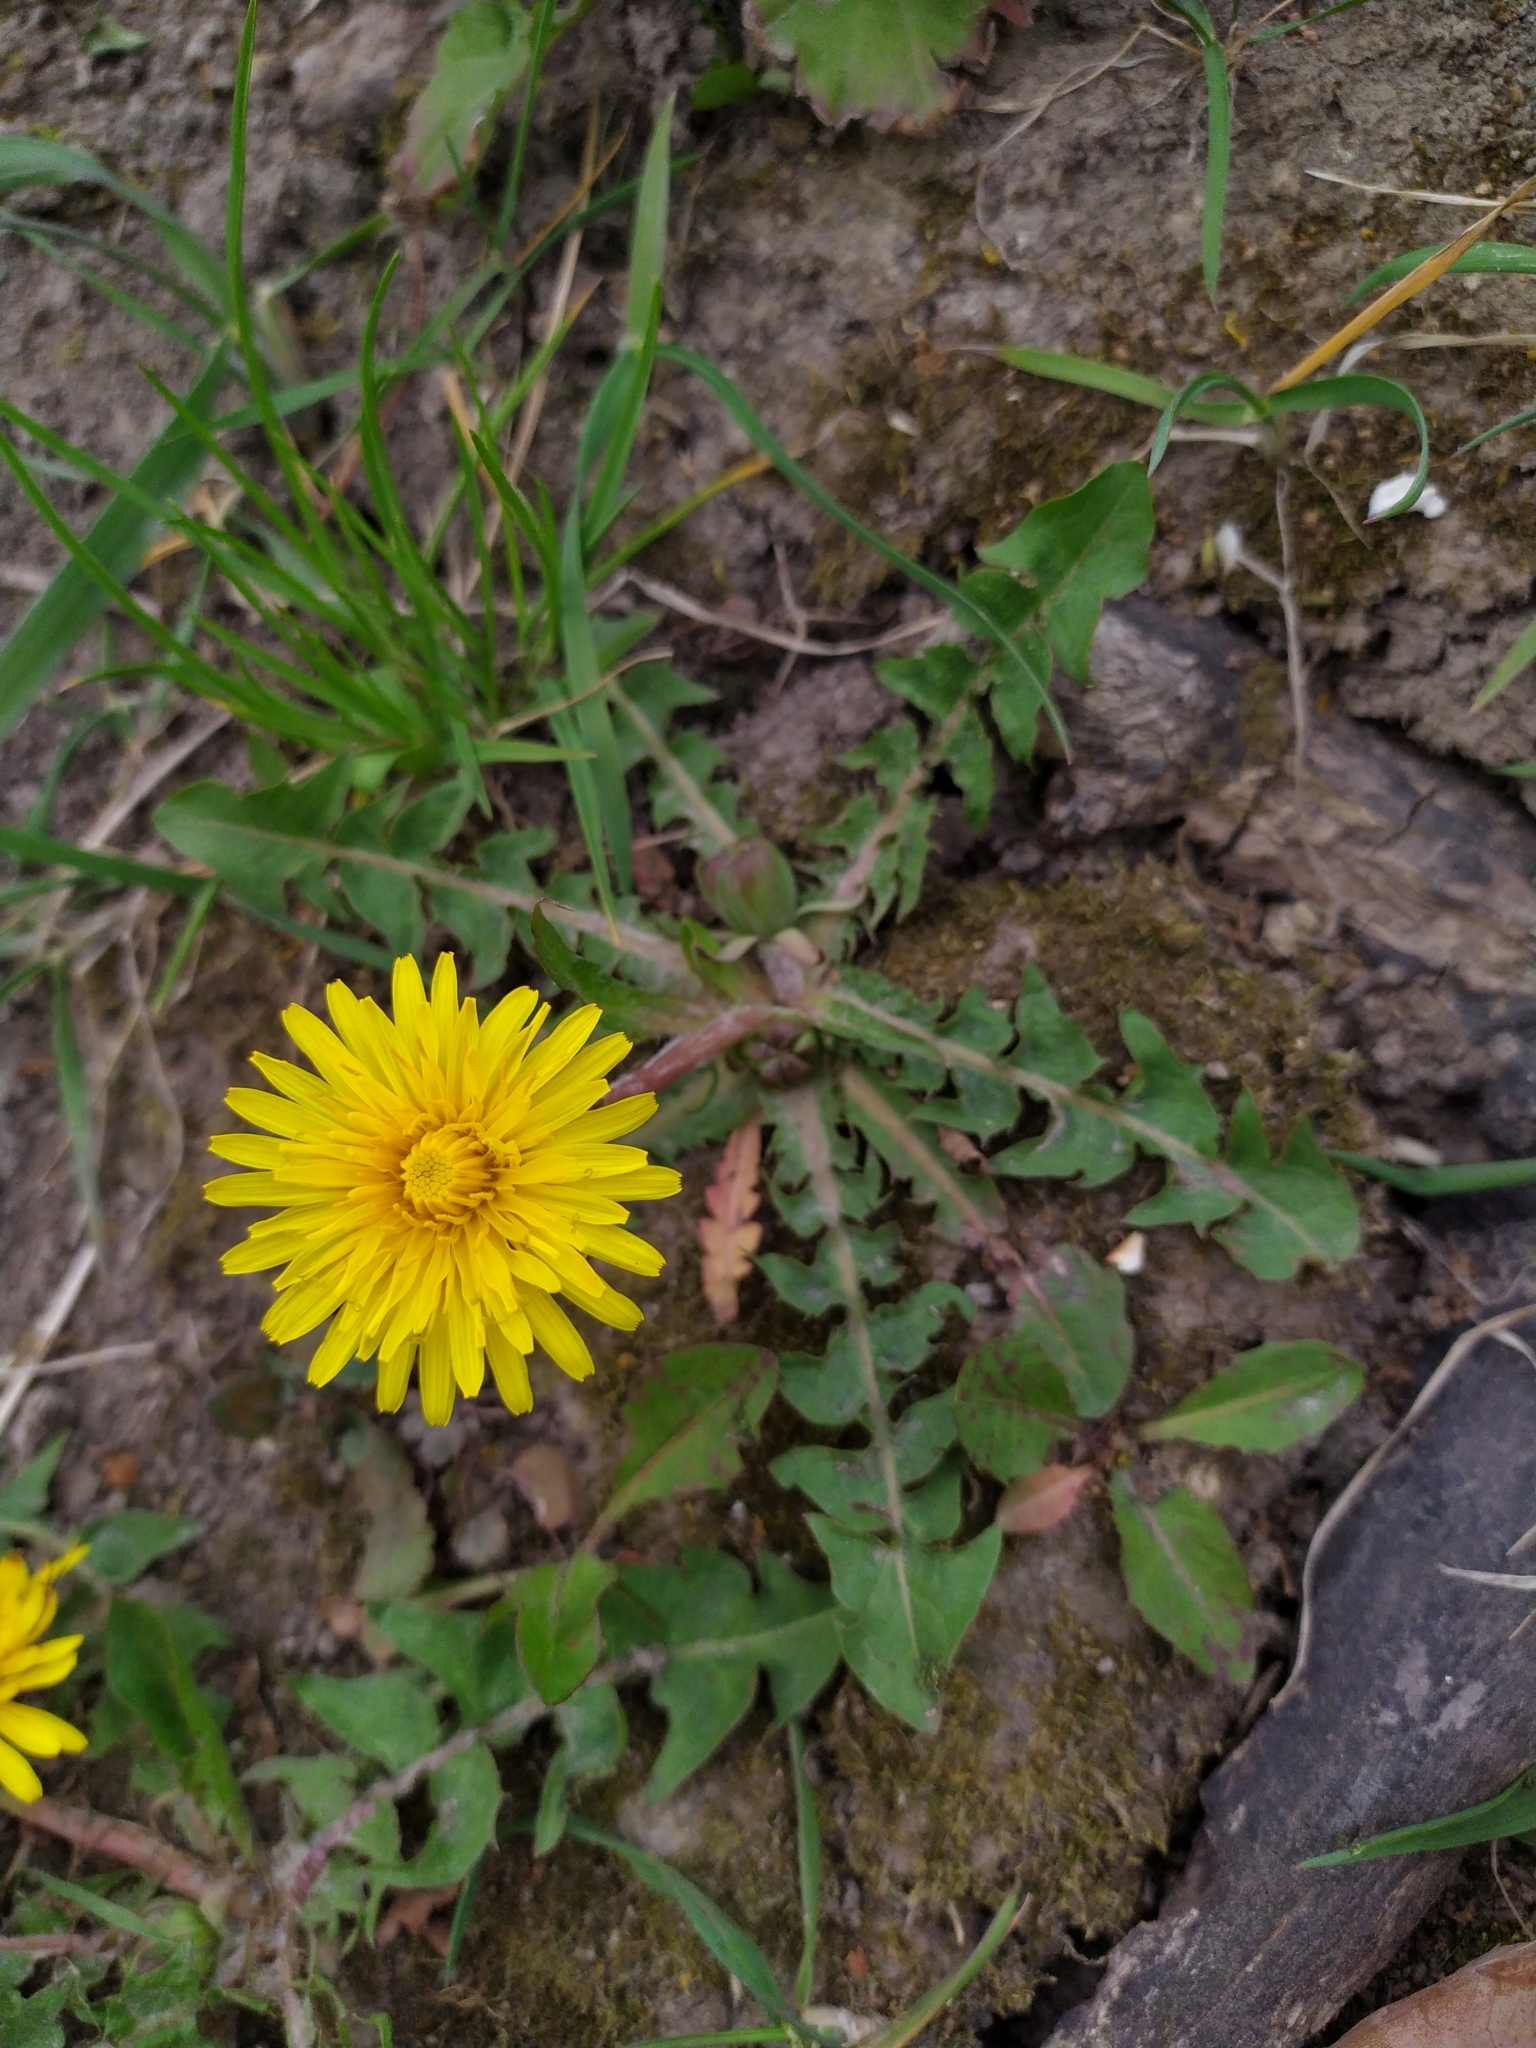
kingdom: Plantae
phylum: Tracheophyta
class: Magnoliopsida
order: Asterales
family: Asteraceae
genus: Taraxacum
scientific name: Taraxacum officinale
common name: Common dandelion
